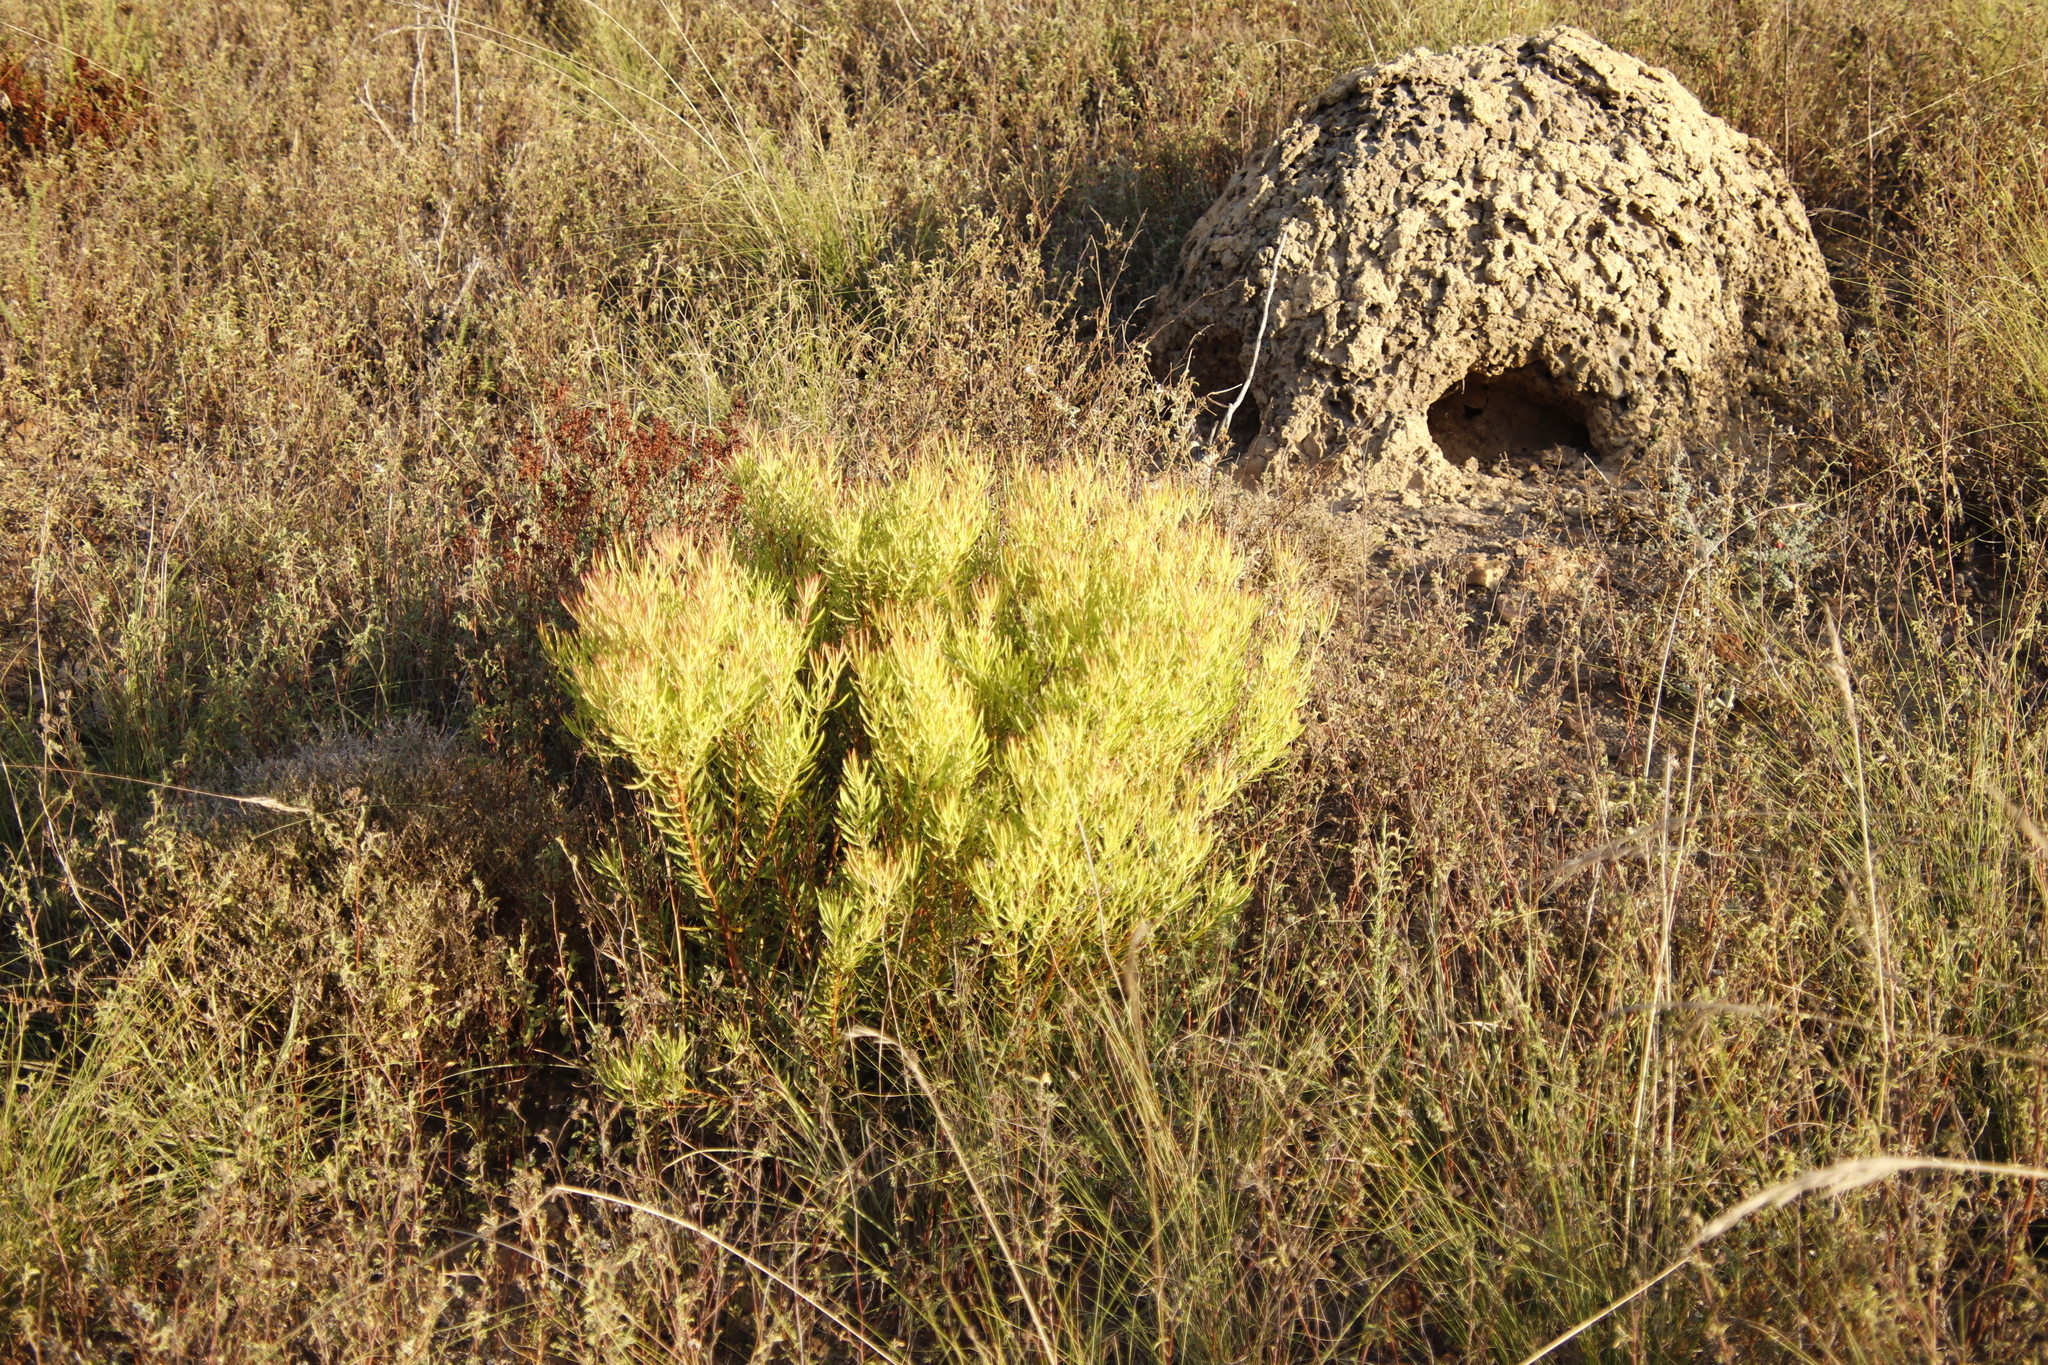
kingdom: Plantae
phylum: Tracheophyta
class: Magnoliopsida
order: Proteales
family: Proteaceae
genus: Leucadendron
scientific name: Leucadendron salignum
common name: Common sunshine conebush
